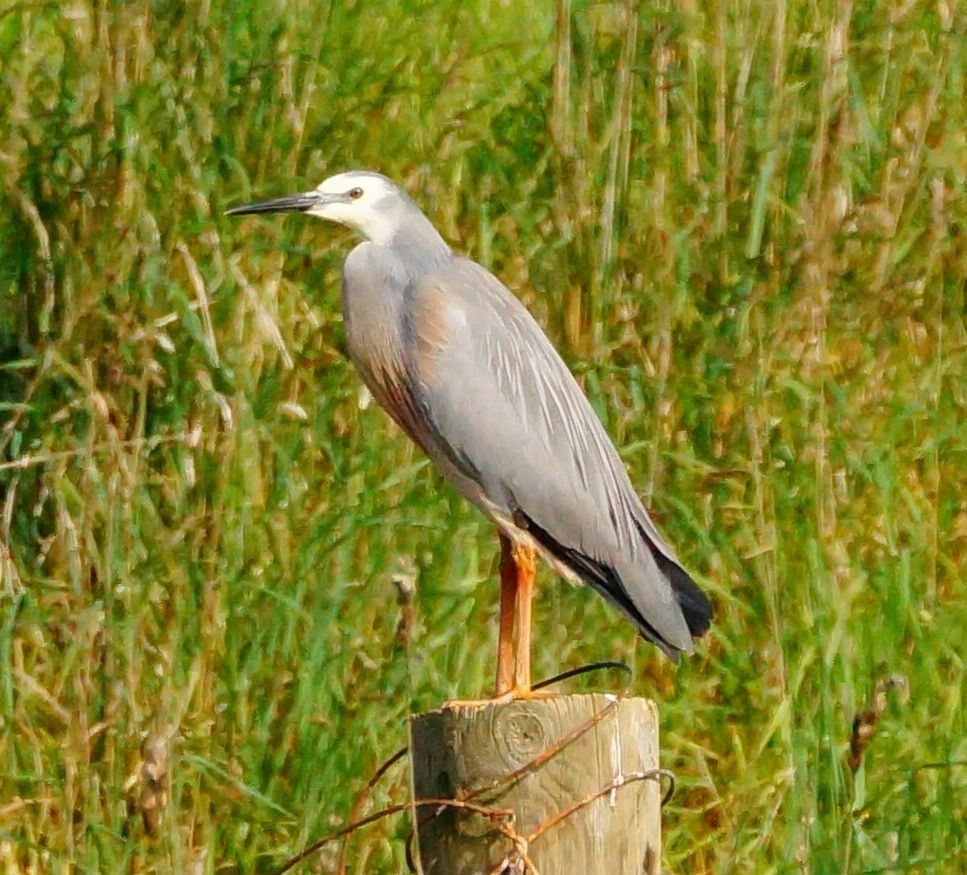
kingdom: Animalia
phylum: Chordata
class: Aves
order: Pelecaniformes
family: Ardeidae
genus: Egretta
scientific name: Egretta novaehollandiae
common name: White-faced heron
